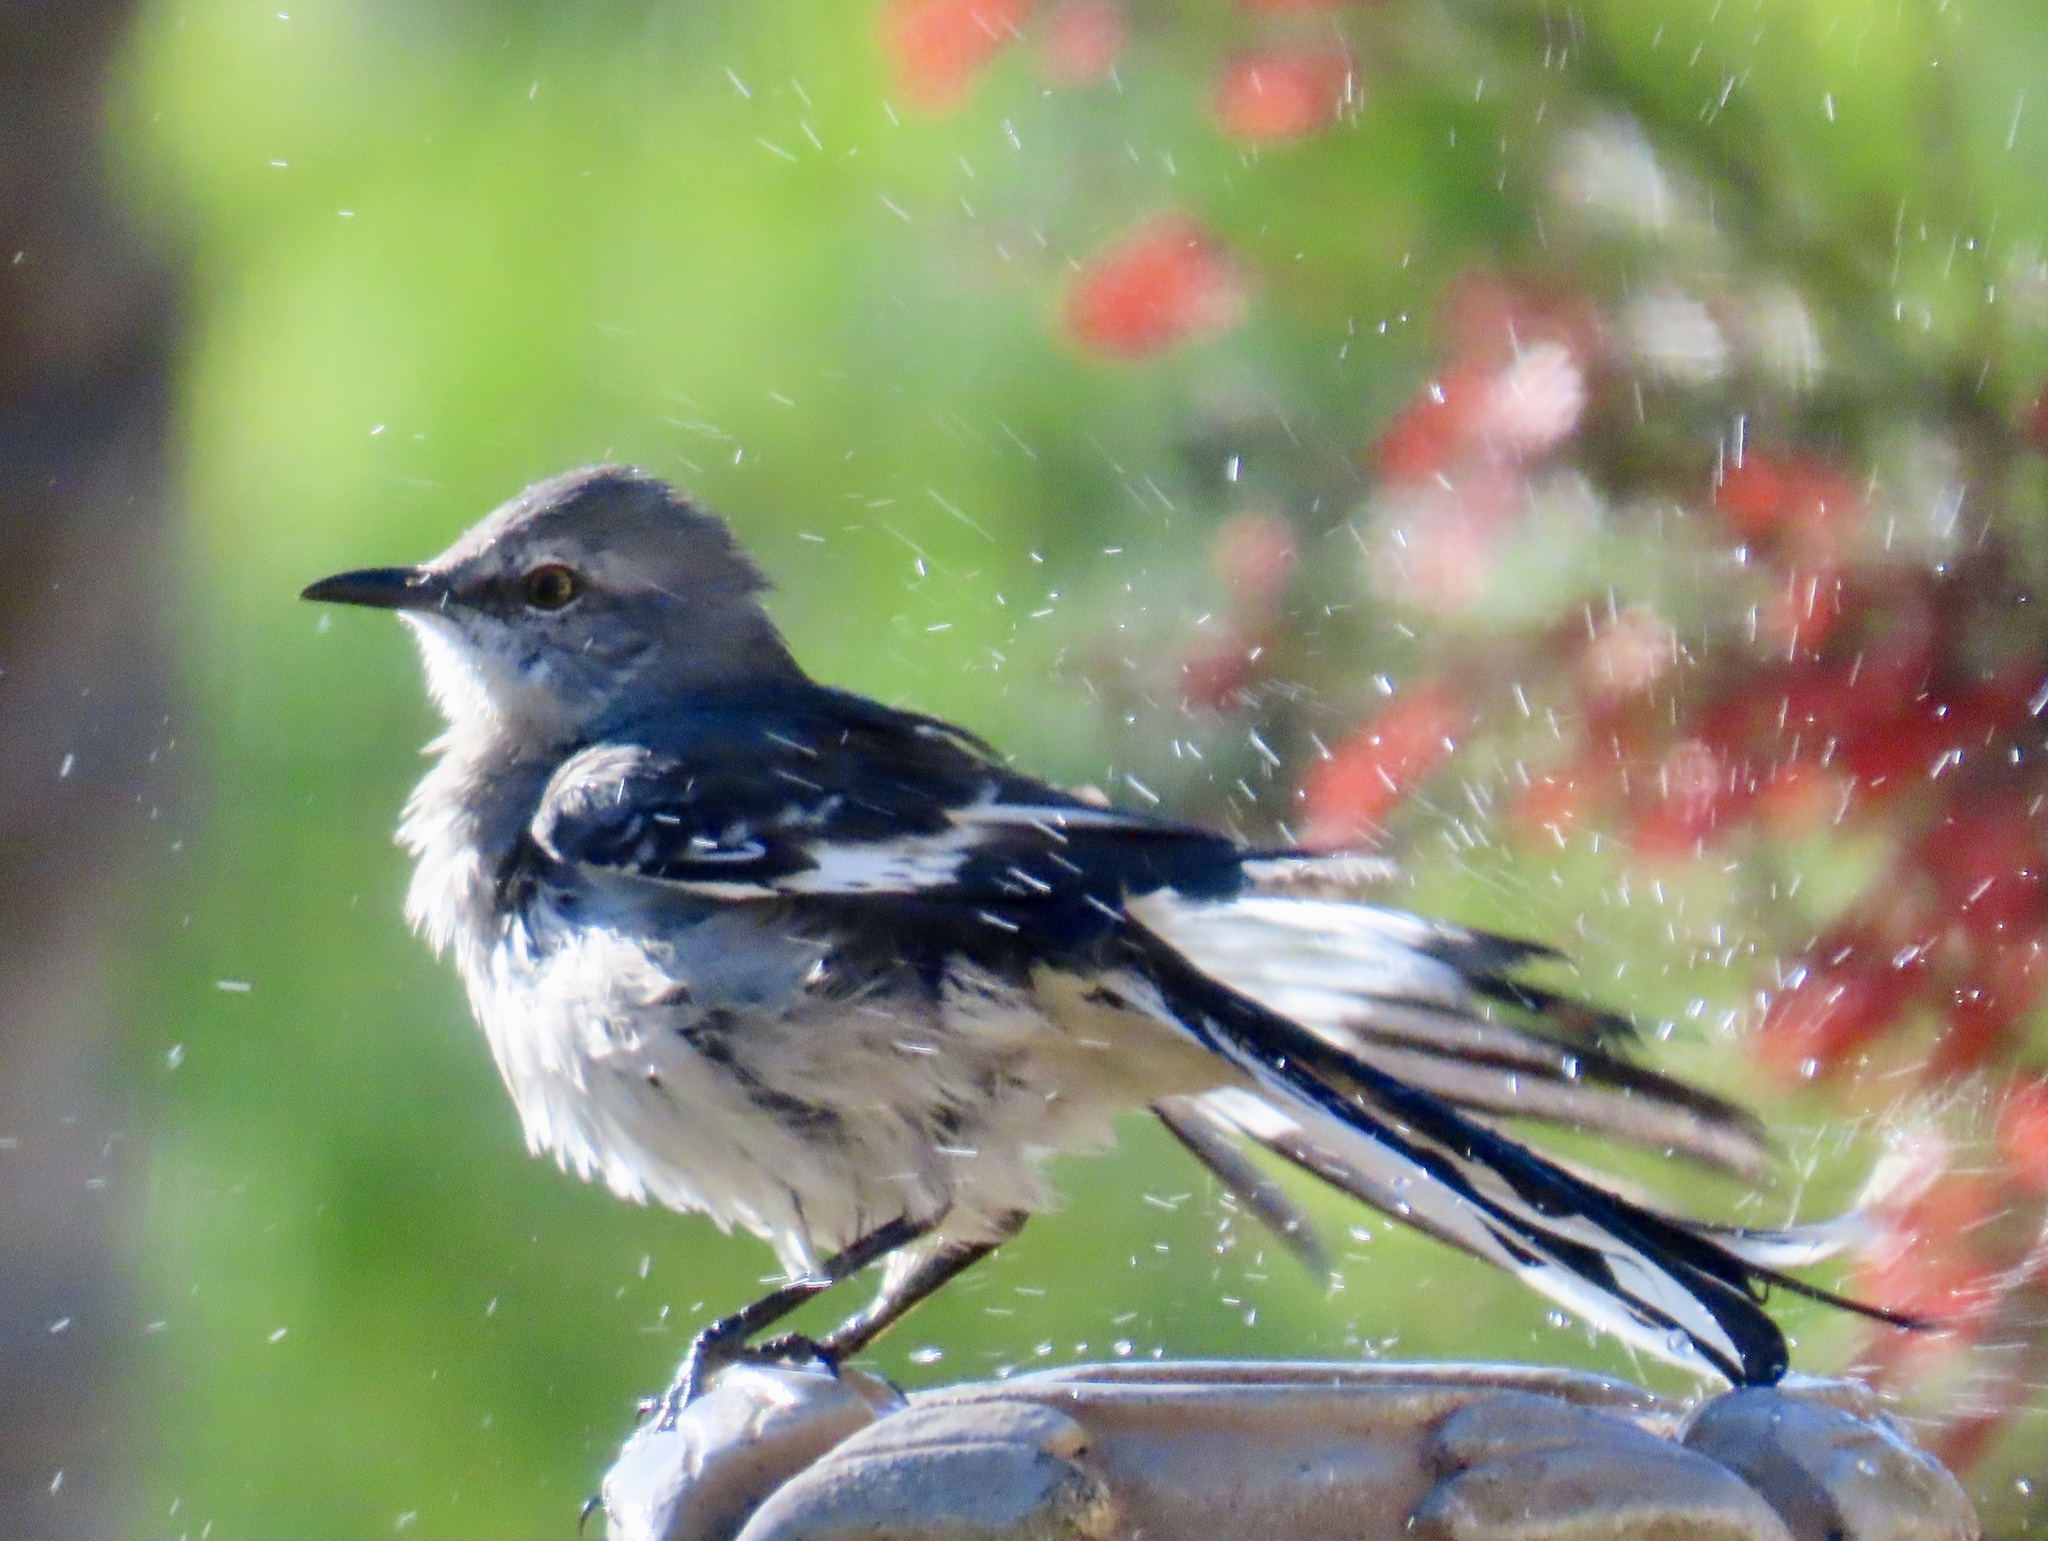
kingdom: Animalia
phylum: Chordata
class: Aves
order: Passeriformes
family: Mimidae
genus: Mimus
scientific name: Mimus polyglottos
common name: Northern mockingbird
